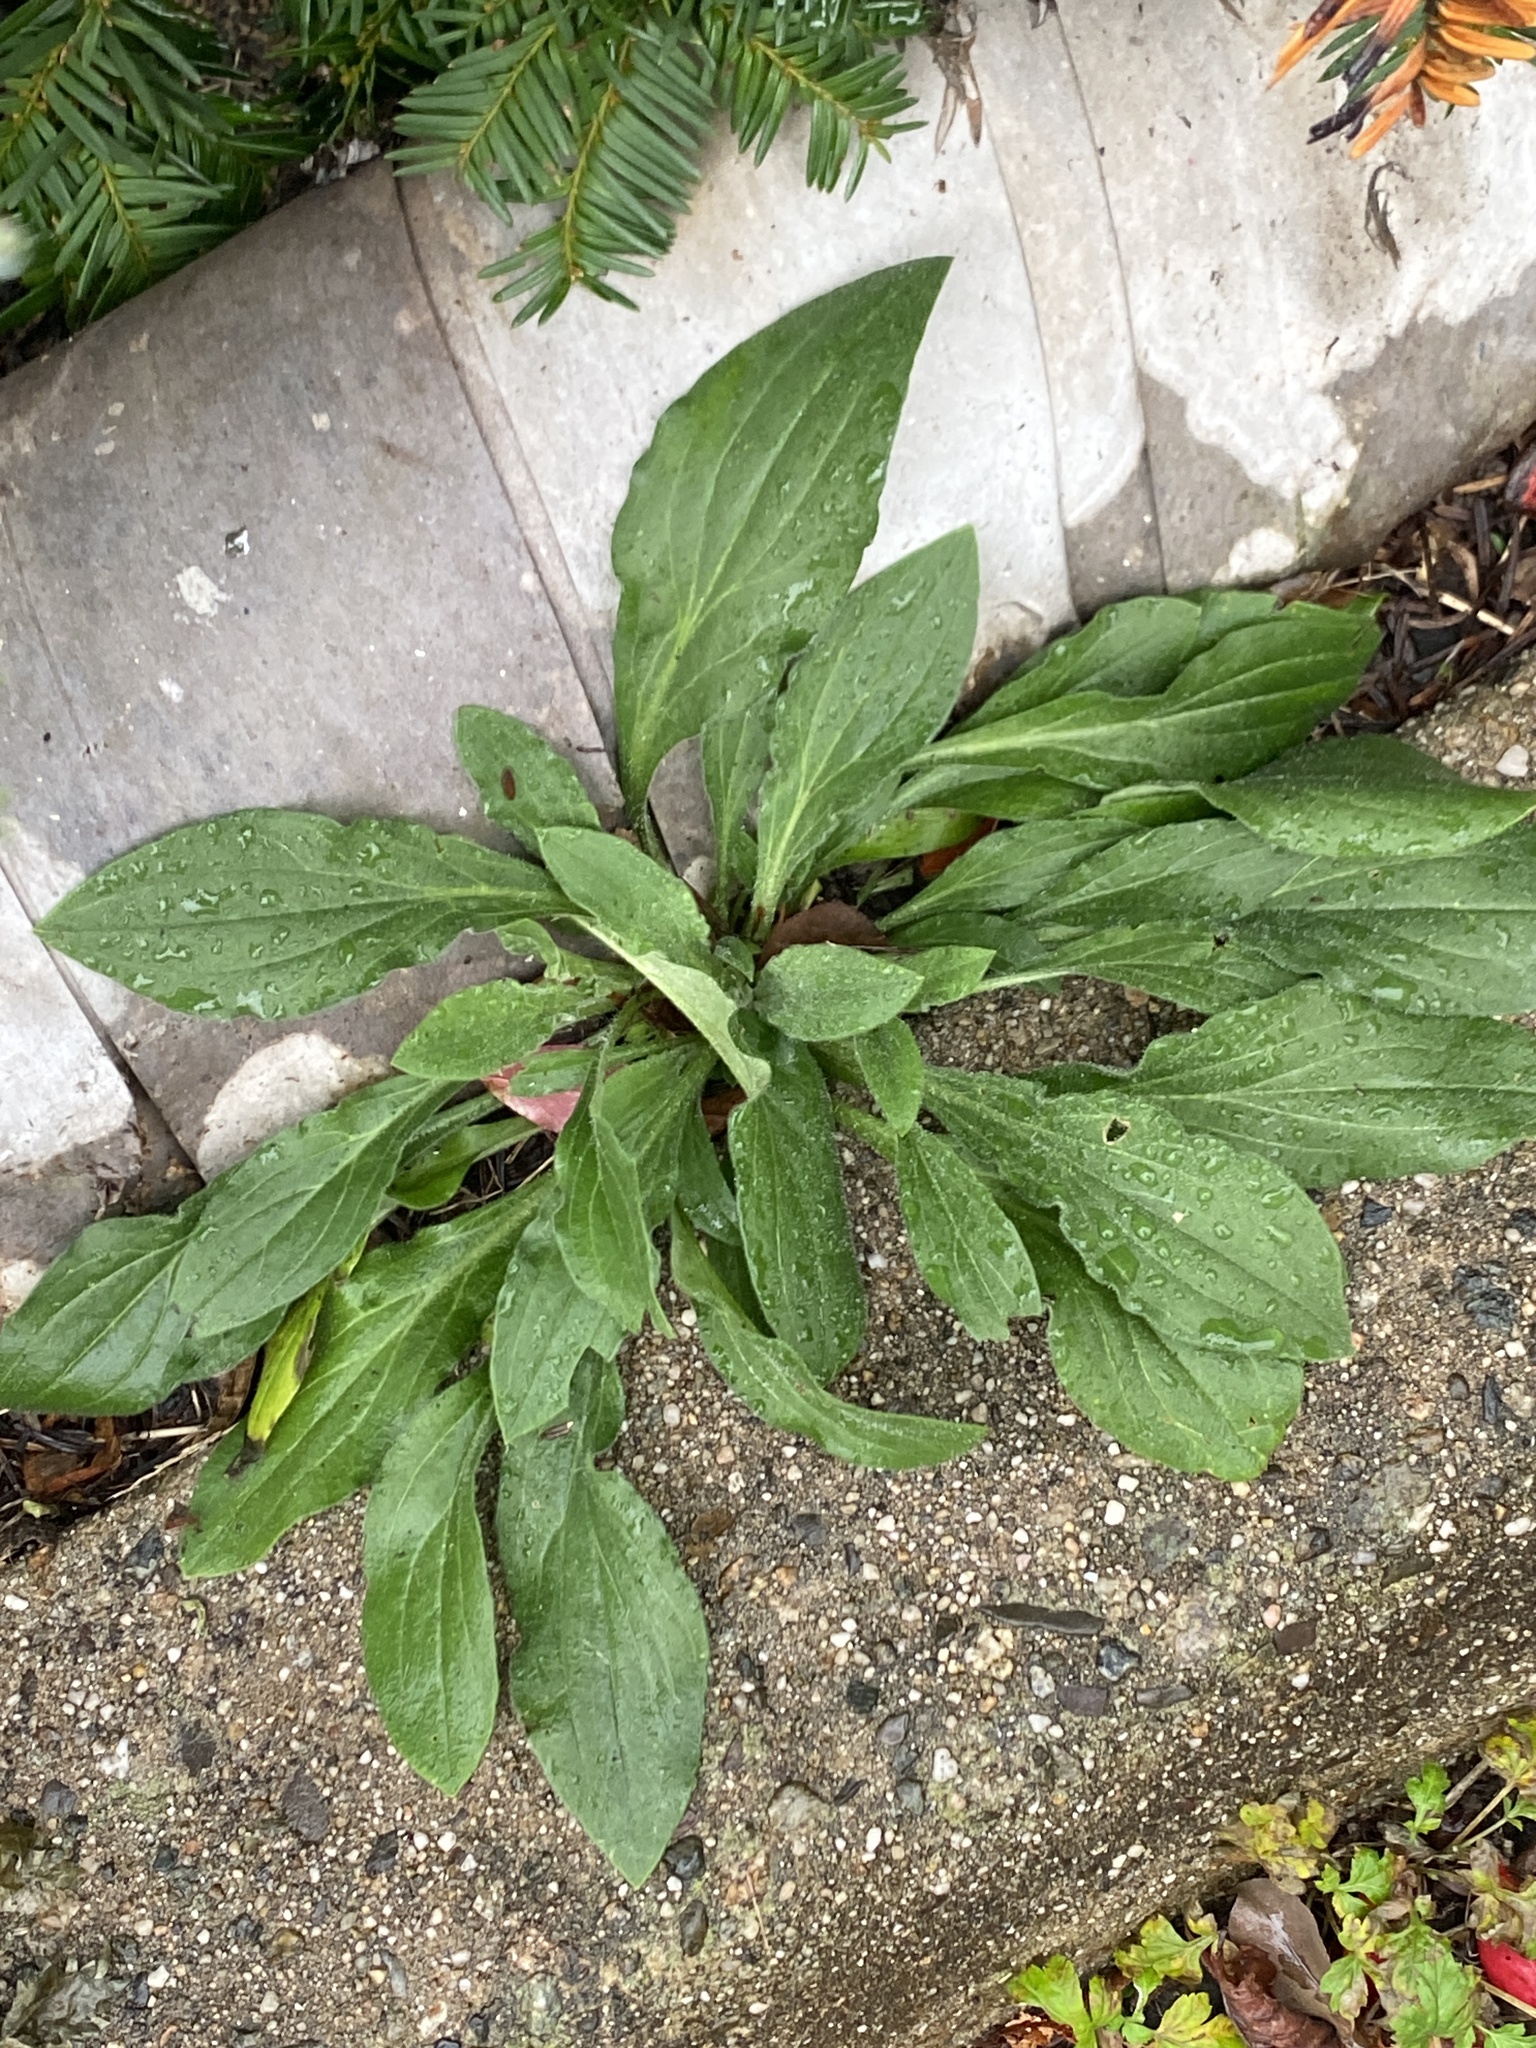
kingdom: Plantae
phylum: Tracheophyta
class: Magnoliopsida
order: Caryophyllales
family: Caryophyllaceae
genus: Silene
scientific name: Silene latifolia
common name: White campion
